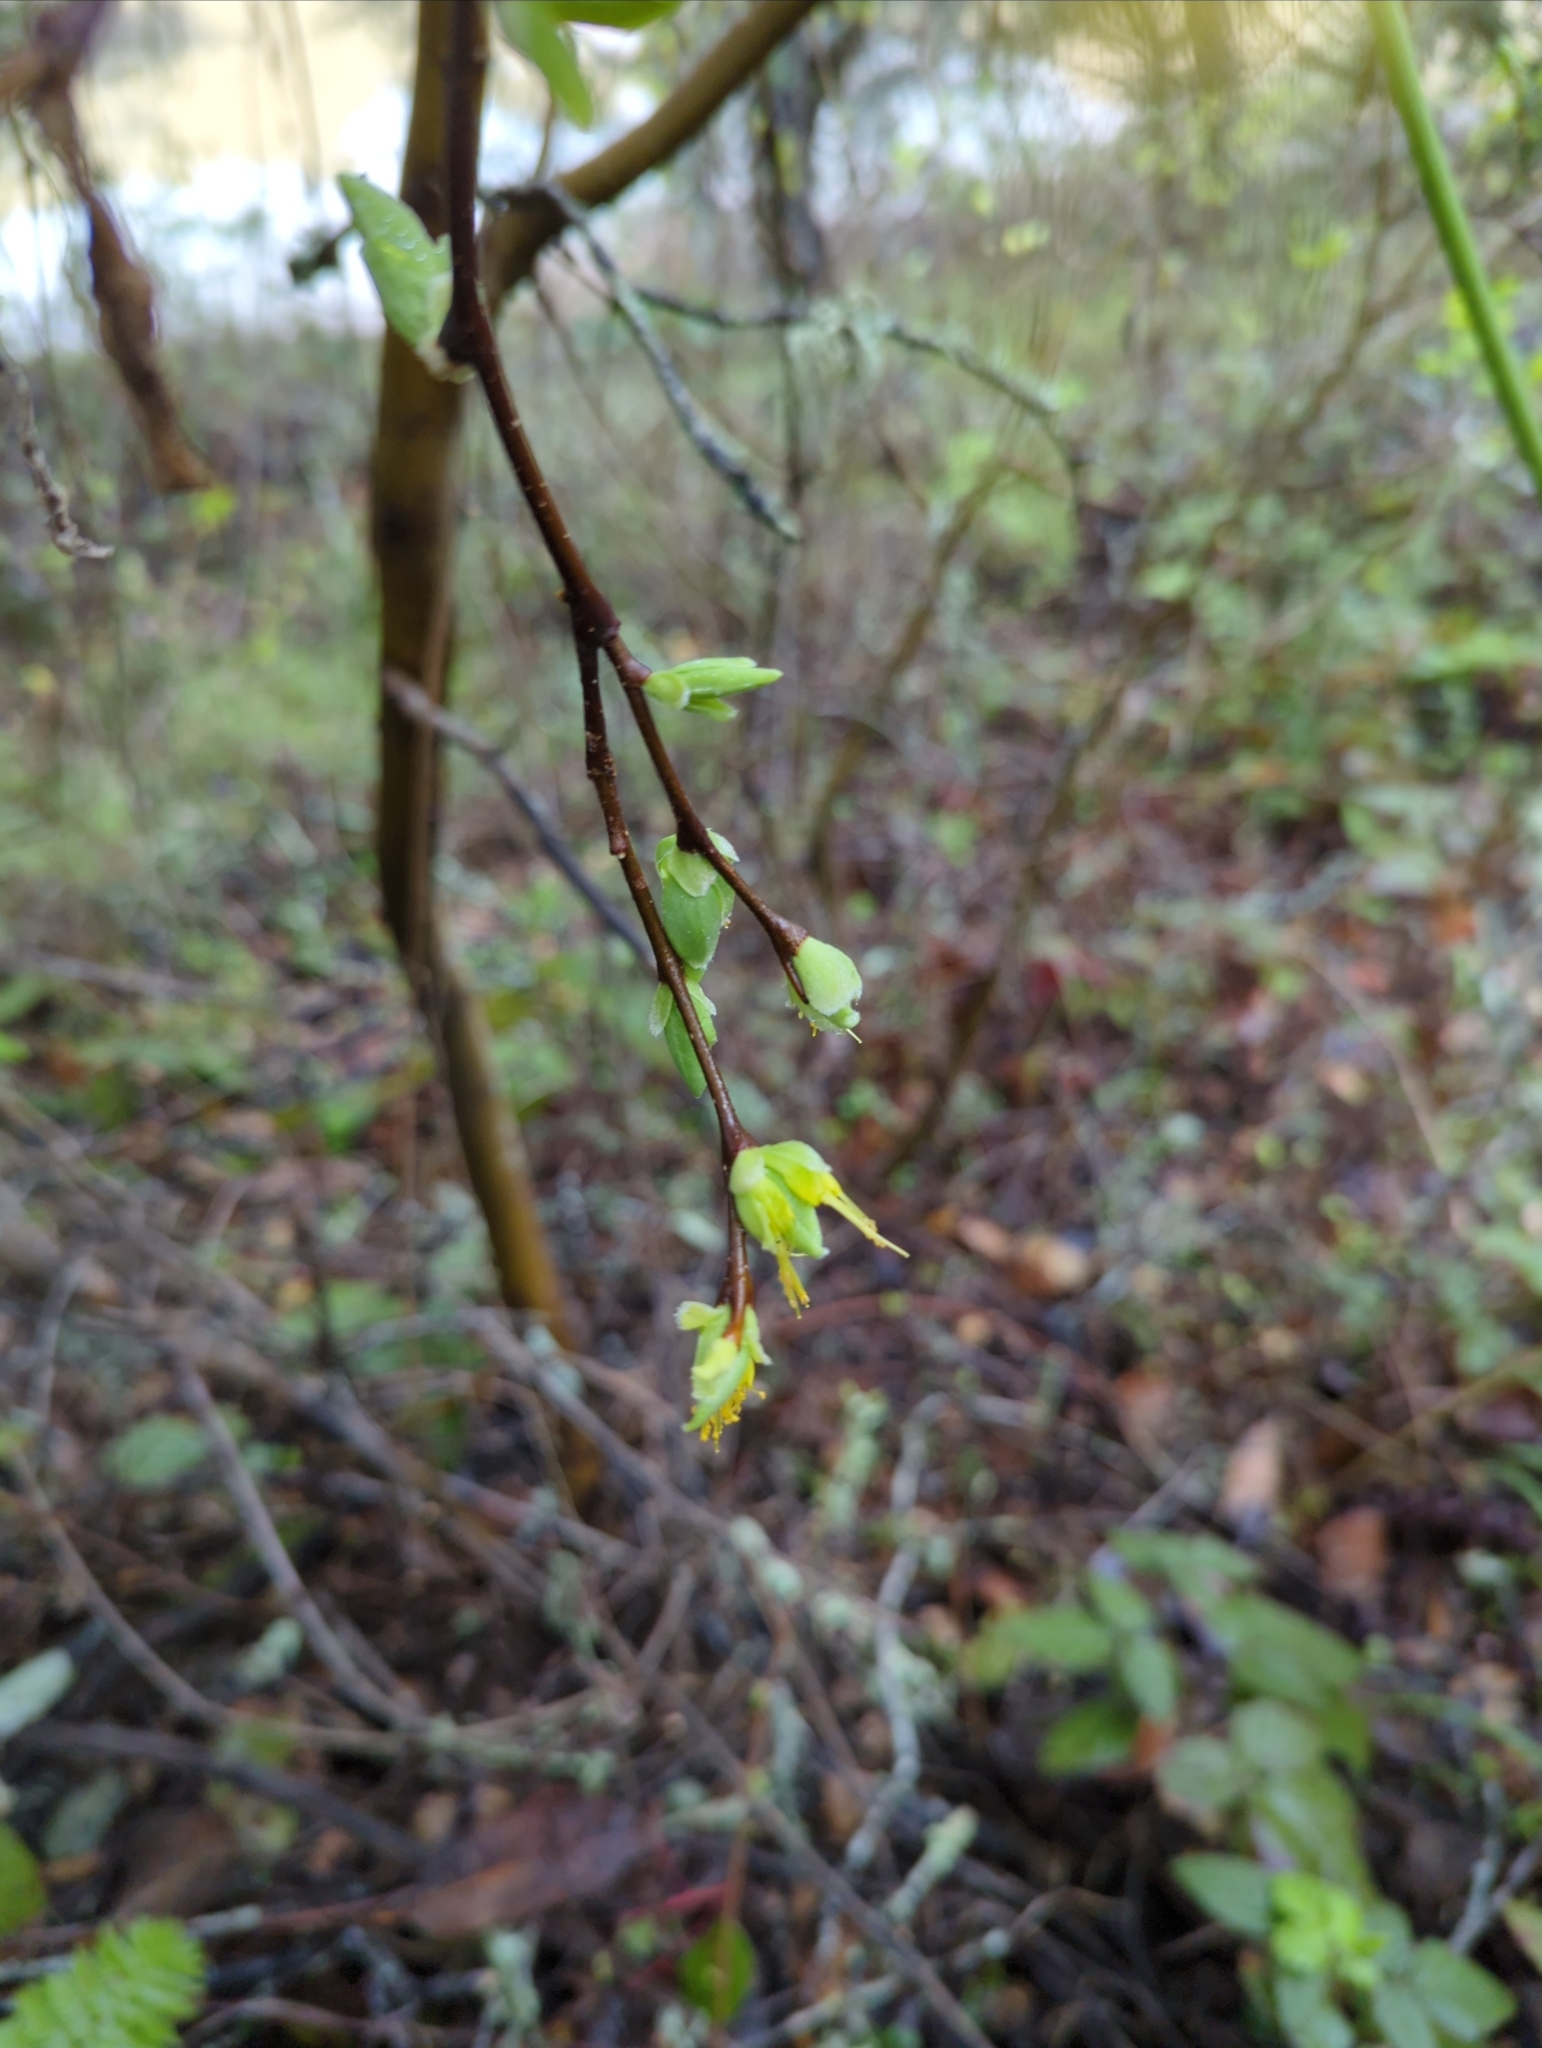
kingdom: Plantae
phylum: Tracheophyta
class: Magnoliopsida
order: Malvales
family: Thymelaeaceae
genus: Dirca
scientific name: Dirca occidentalis
